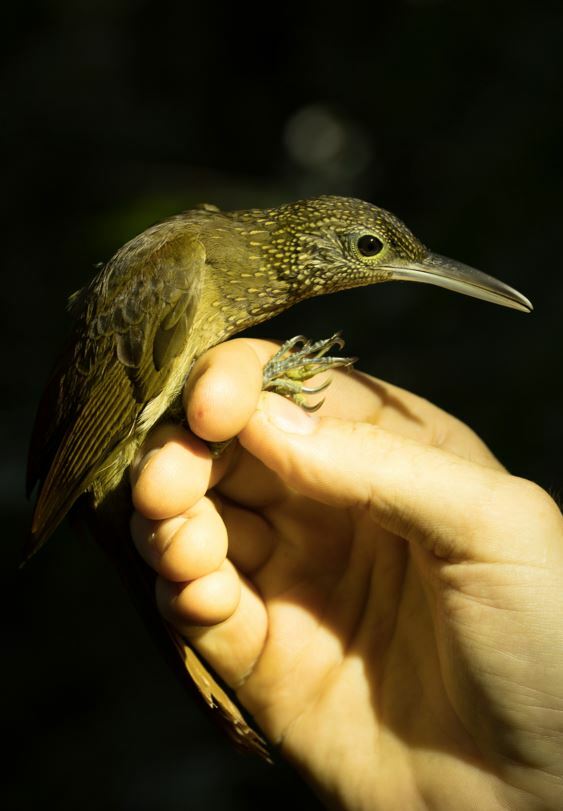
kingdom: Animalia
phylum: Chordata
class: Aves
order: Passeriformes
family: Furnariidae
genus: Xiphorhynchus
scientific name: Xiphorhynchus elegans
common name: Elegant woodcreeper
